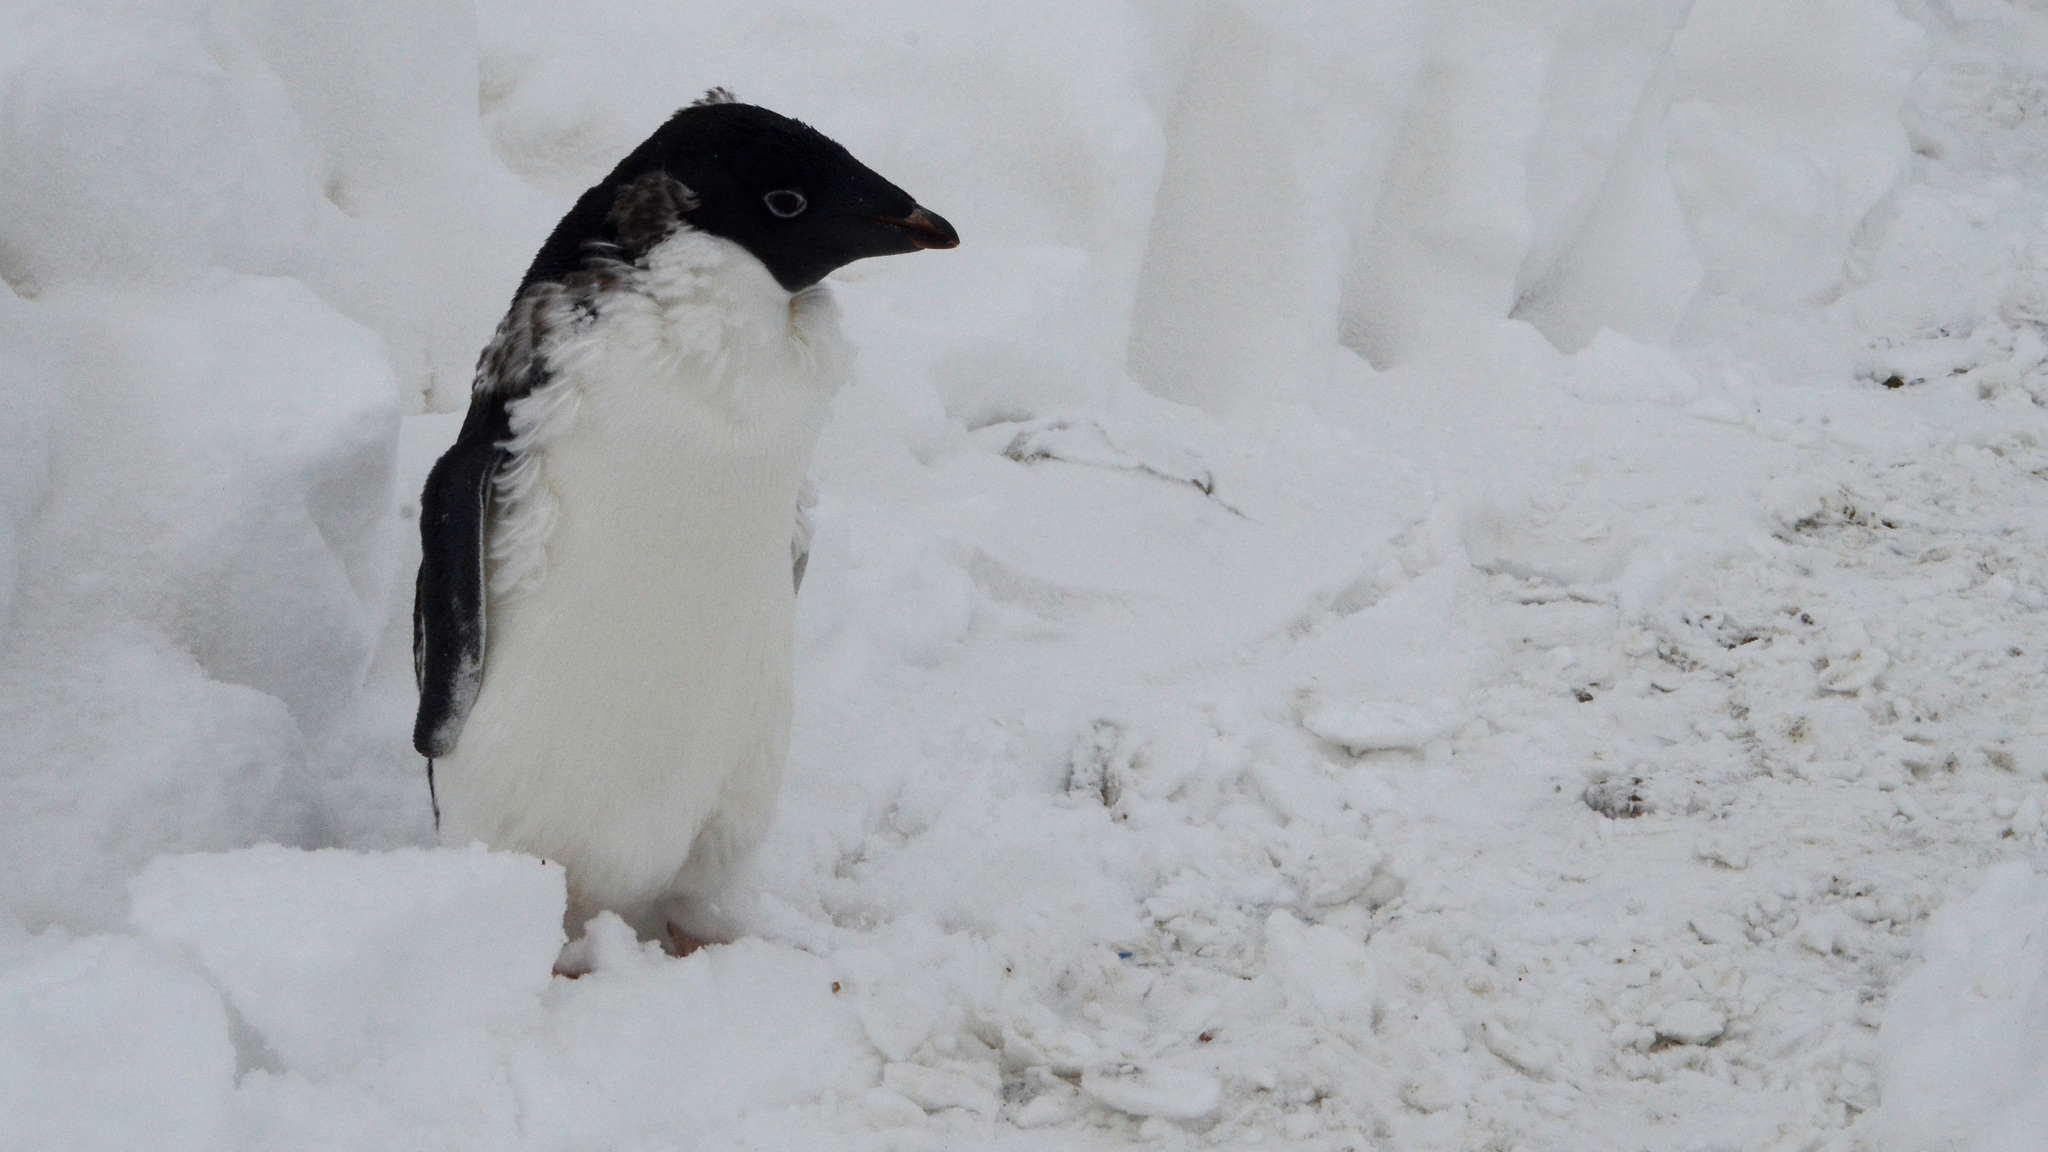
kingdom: Animalia
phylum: Chordata
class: Aves
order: Sphenisciformes
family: Spheniscidae
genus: Pygoscelis
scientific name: Pygoscelis adeliae
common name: Adelie penguin
